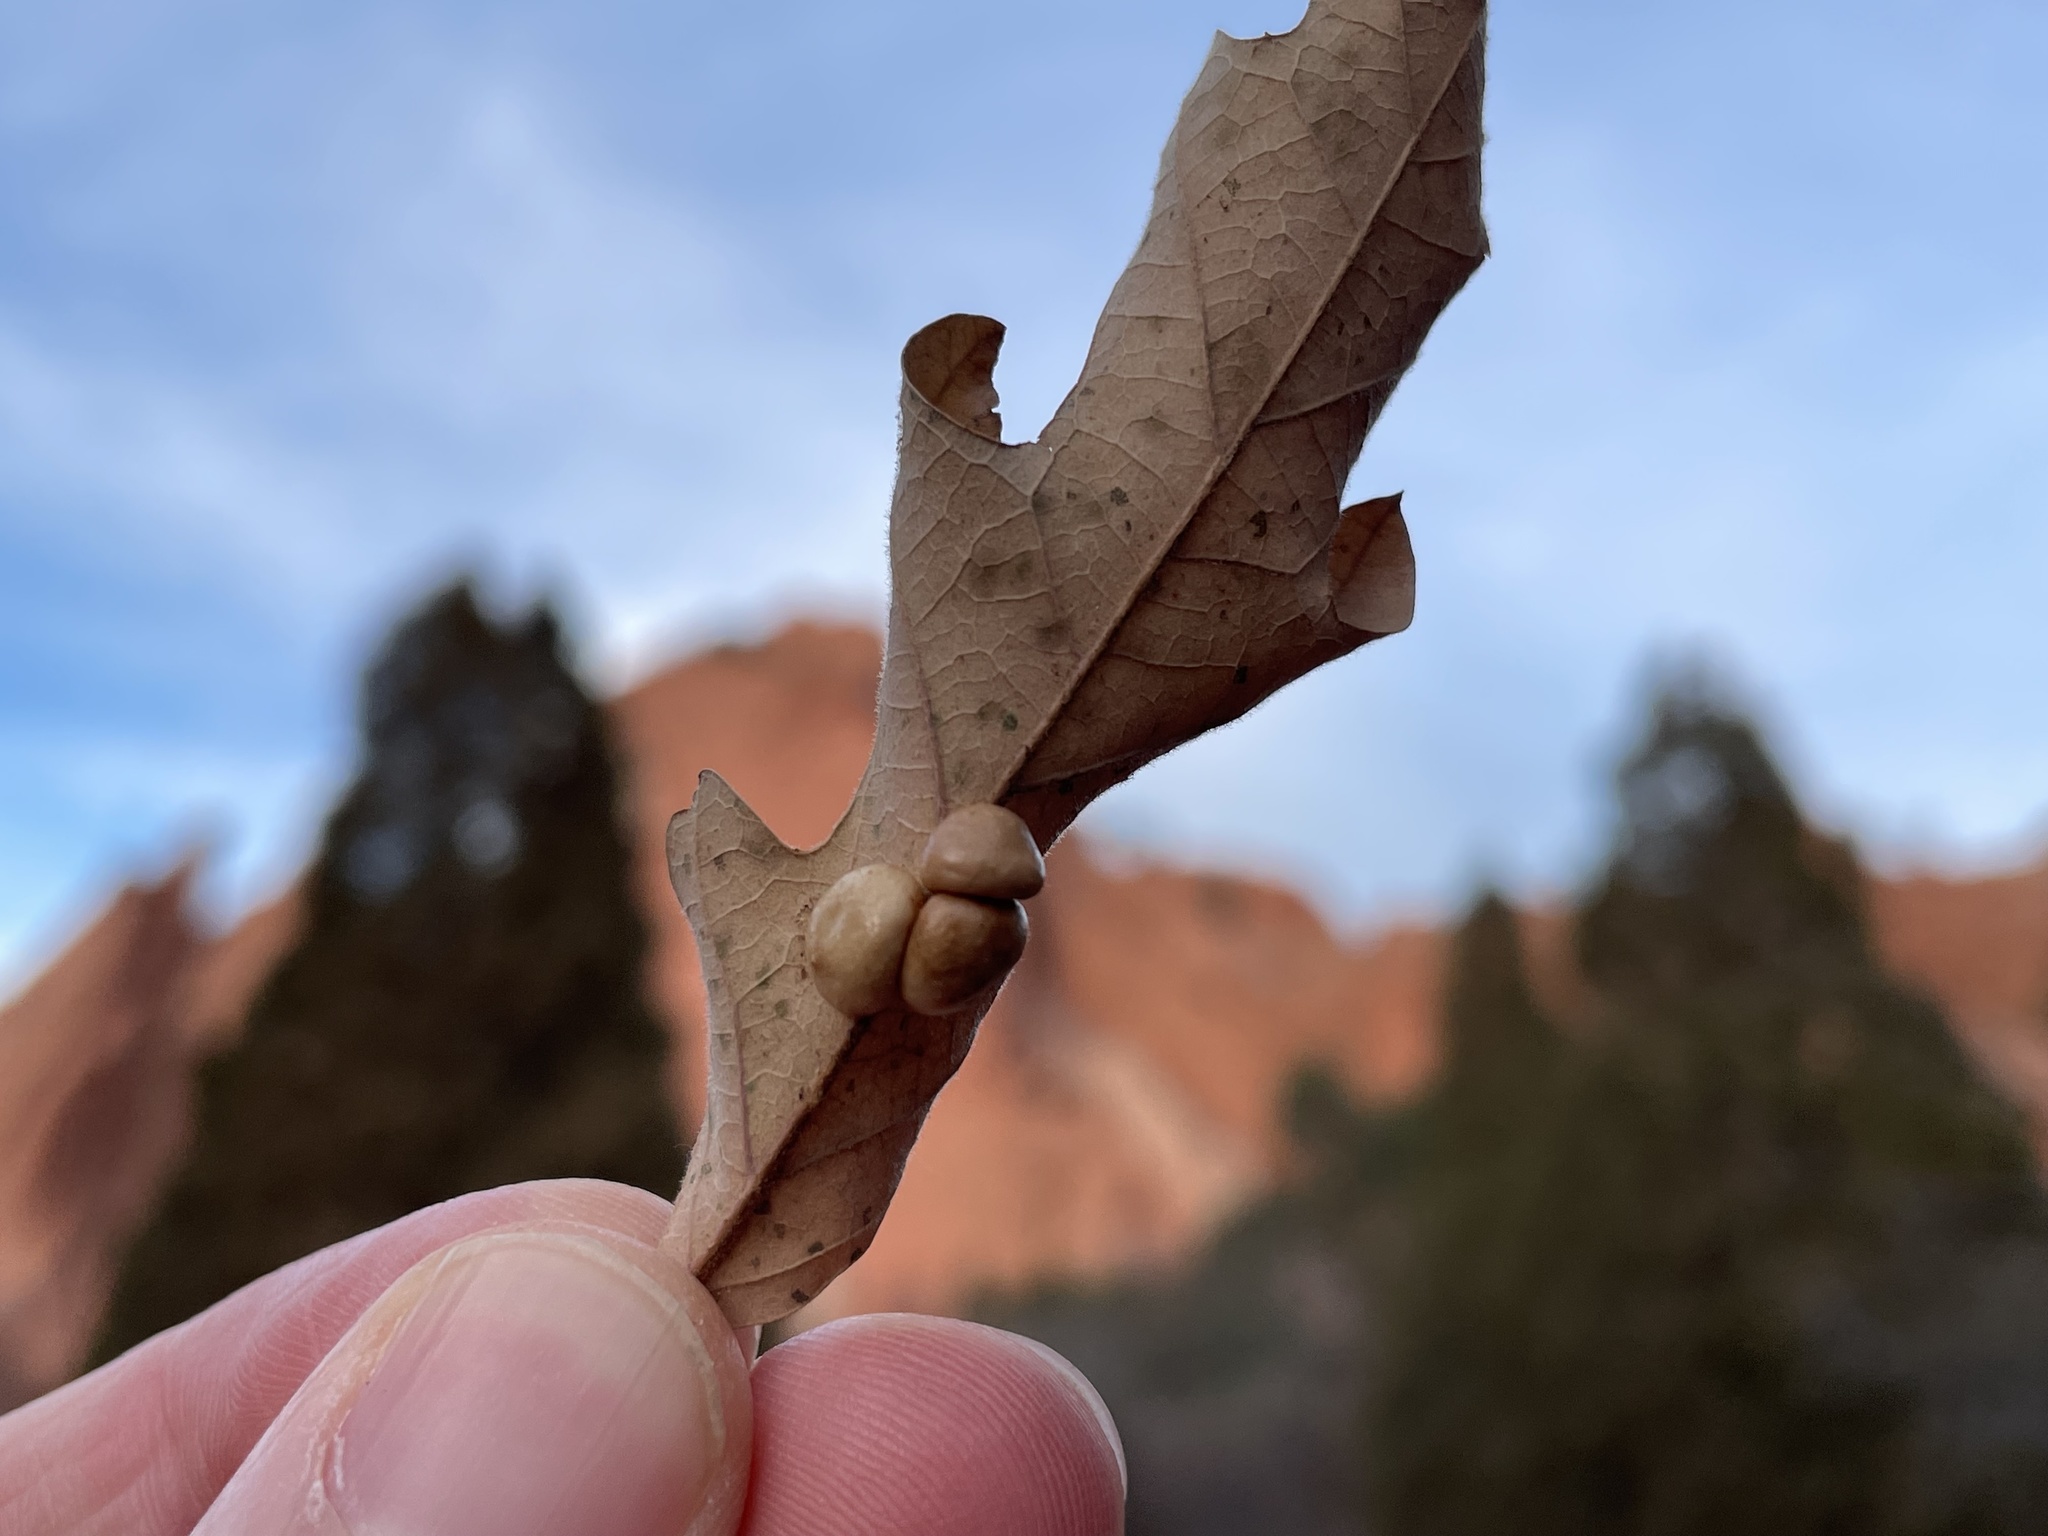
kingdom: Animalia
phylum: Arthropoda
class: Insecta
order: Hymenoptera
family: Cynipidae
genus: Trigonaspis
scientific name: Trigonaspis
